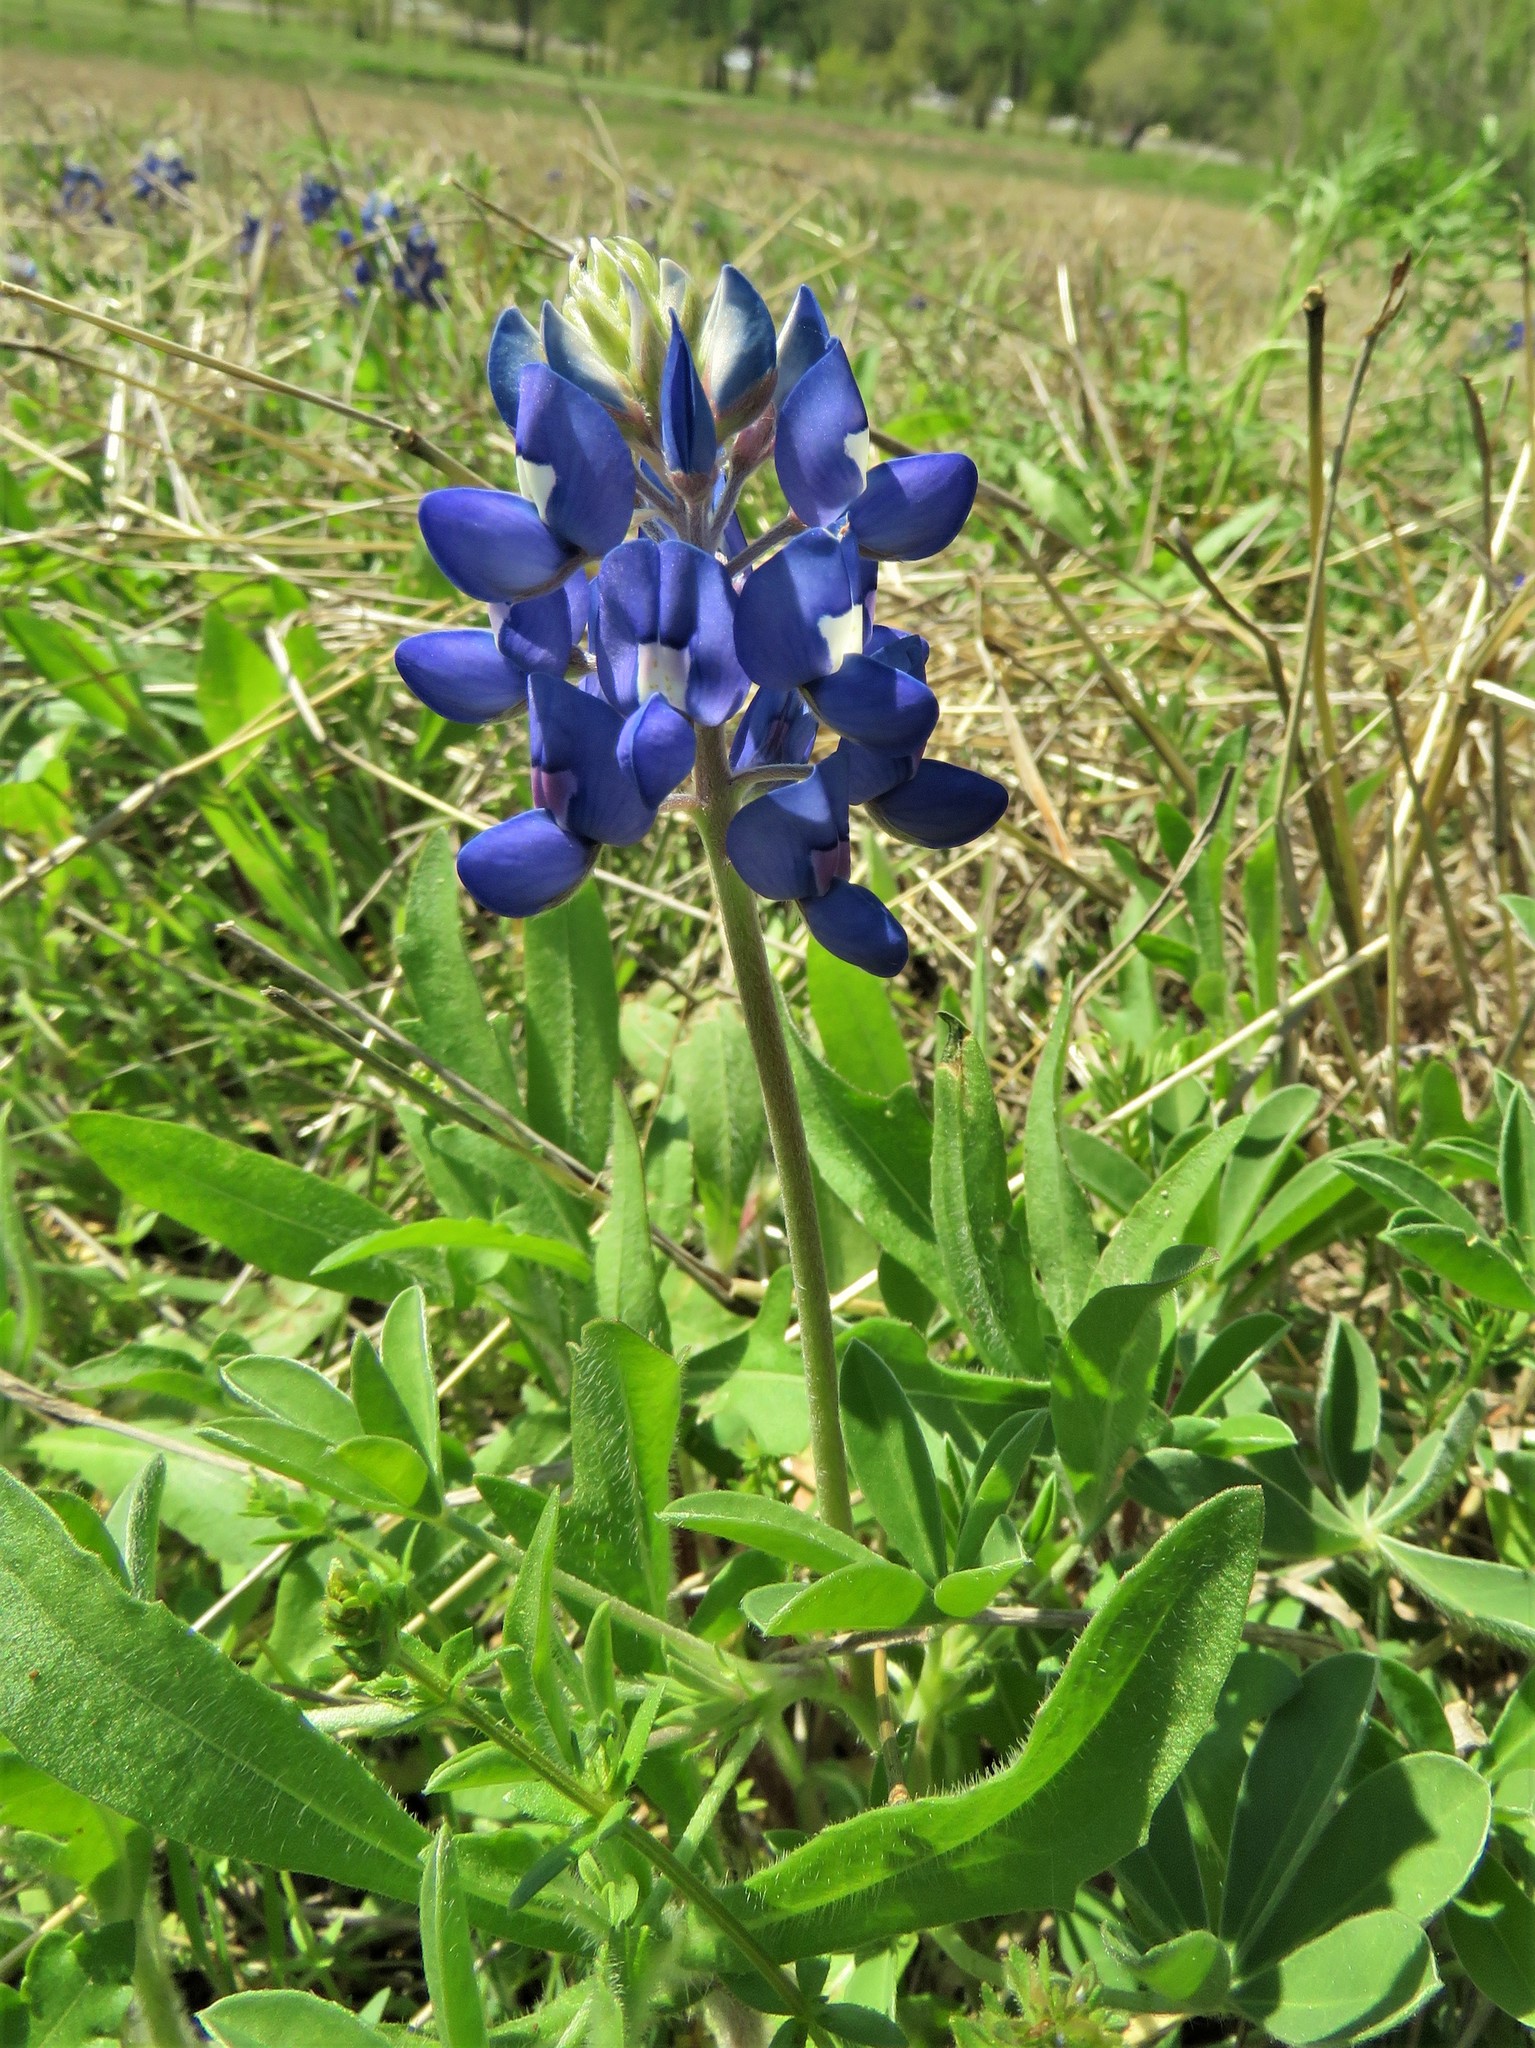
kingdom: Plantae
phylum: Tracheophyta
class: Magnoliopsida
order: Fabales
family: Fabaceae
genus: Lupinus
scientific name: Lupinus texensis
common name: Texas bluebonnet
